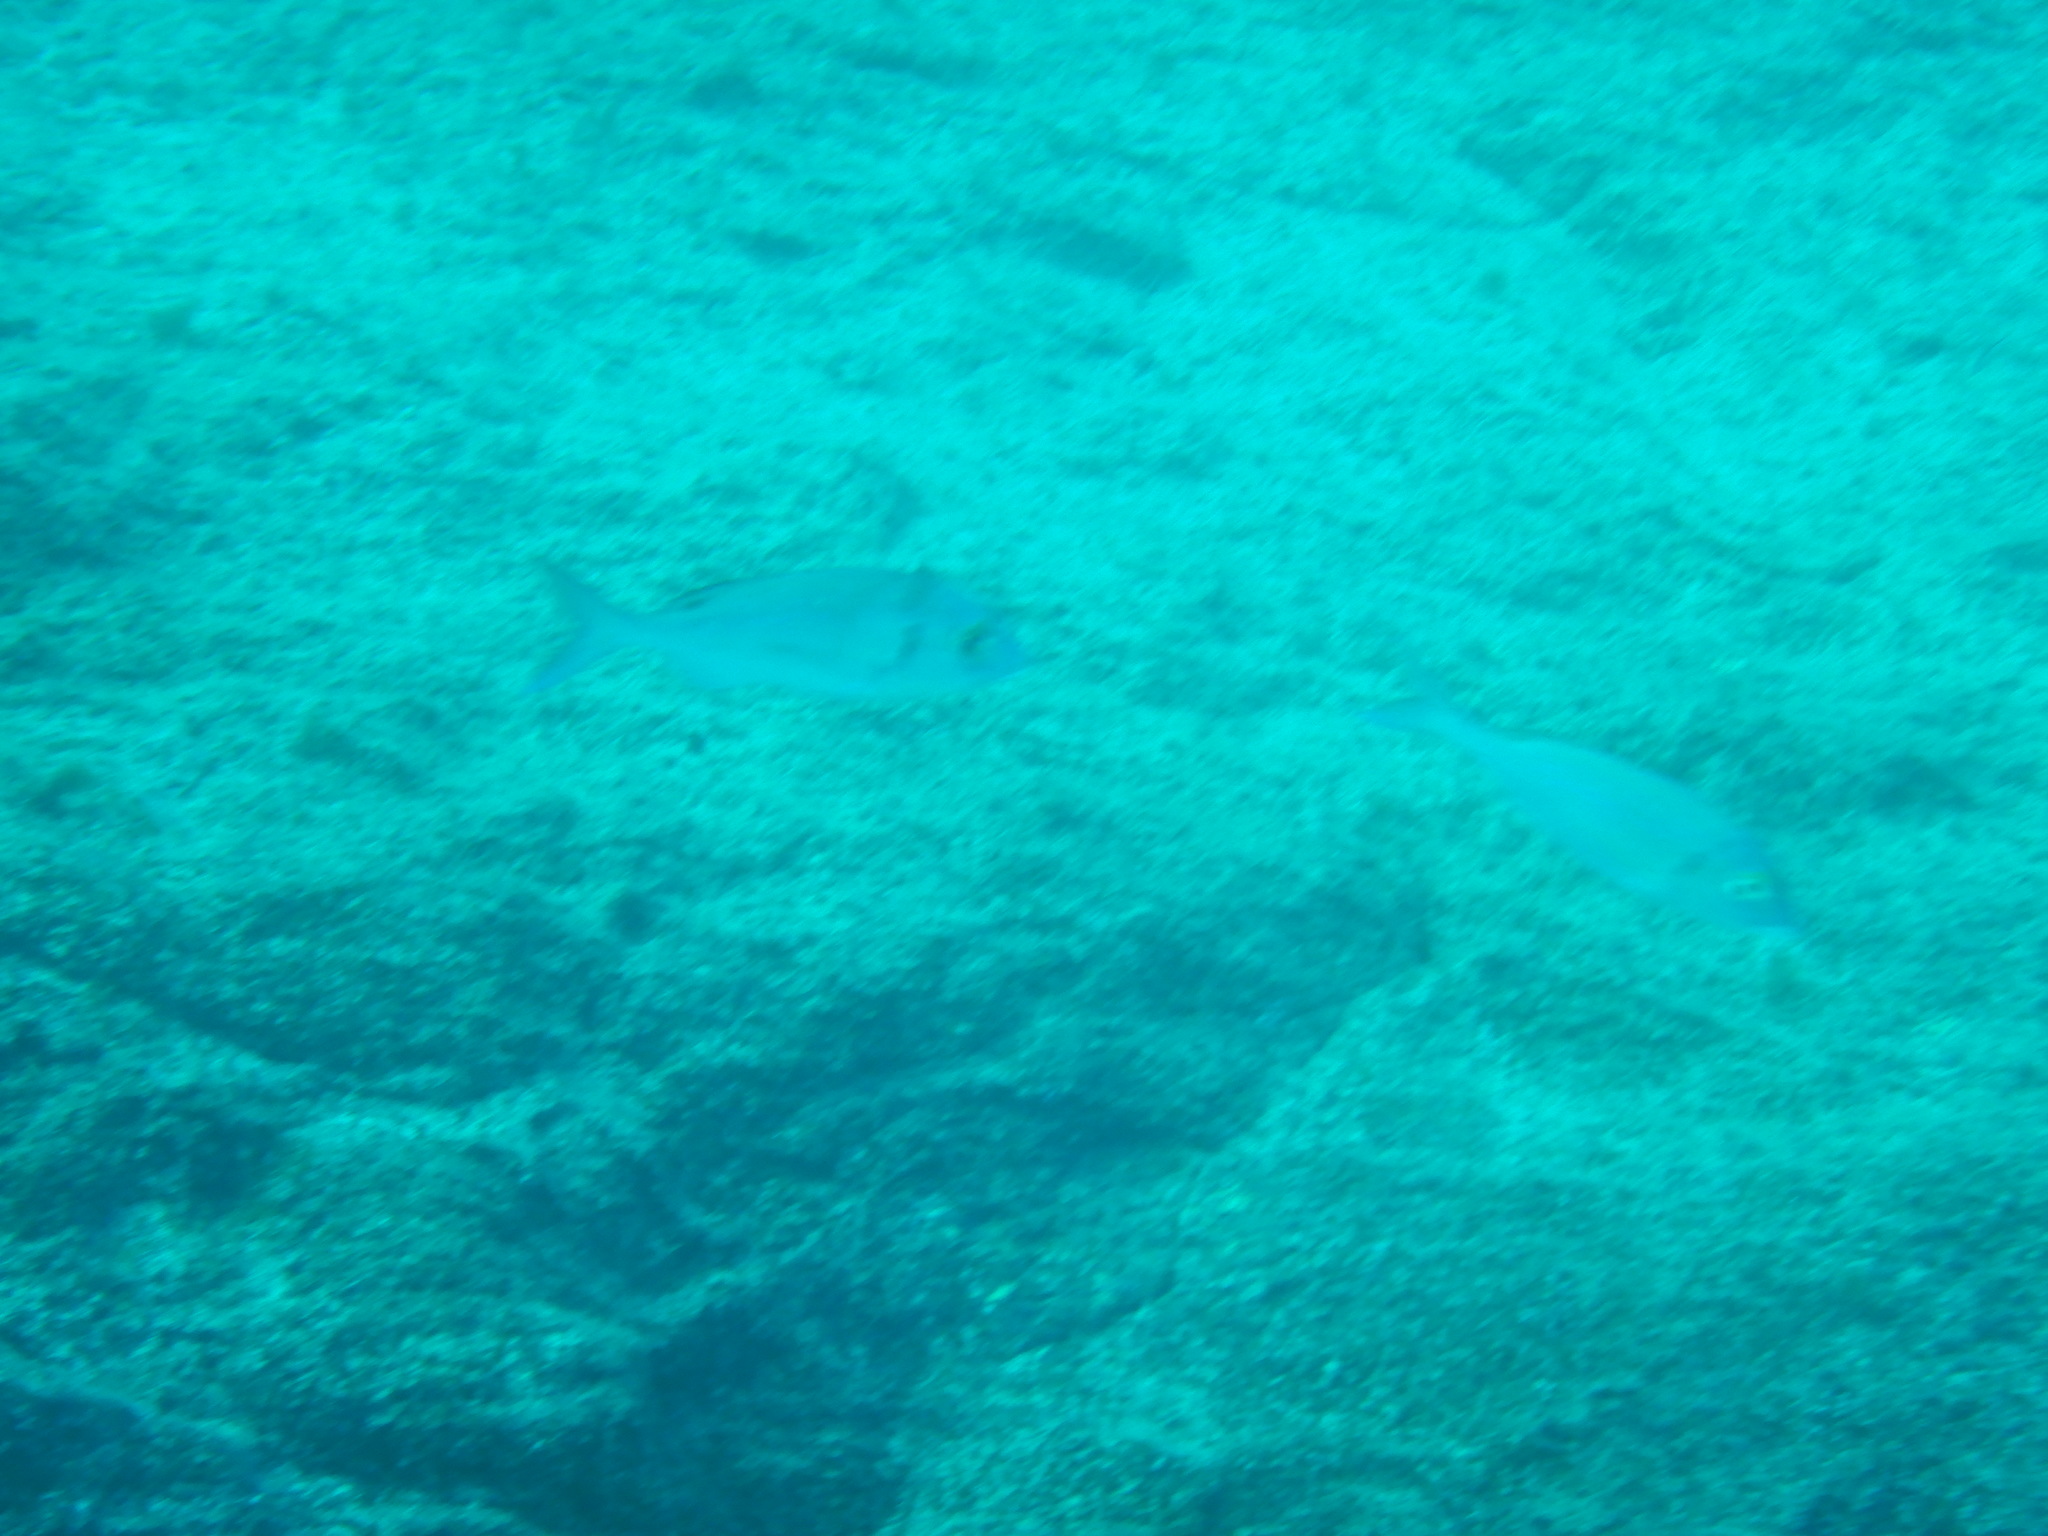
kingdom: Animalia
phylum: Chordata
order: Perciformes
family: Sparidae
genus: Pagellus
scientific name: Pagellus erythrinus
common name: Pandora
